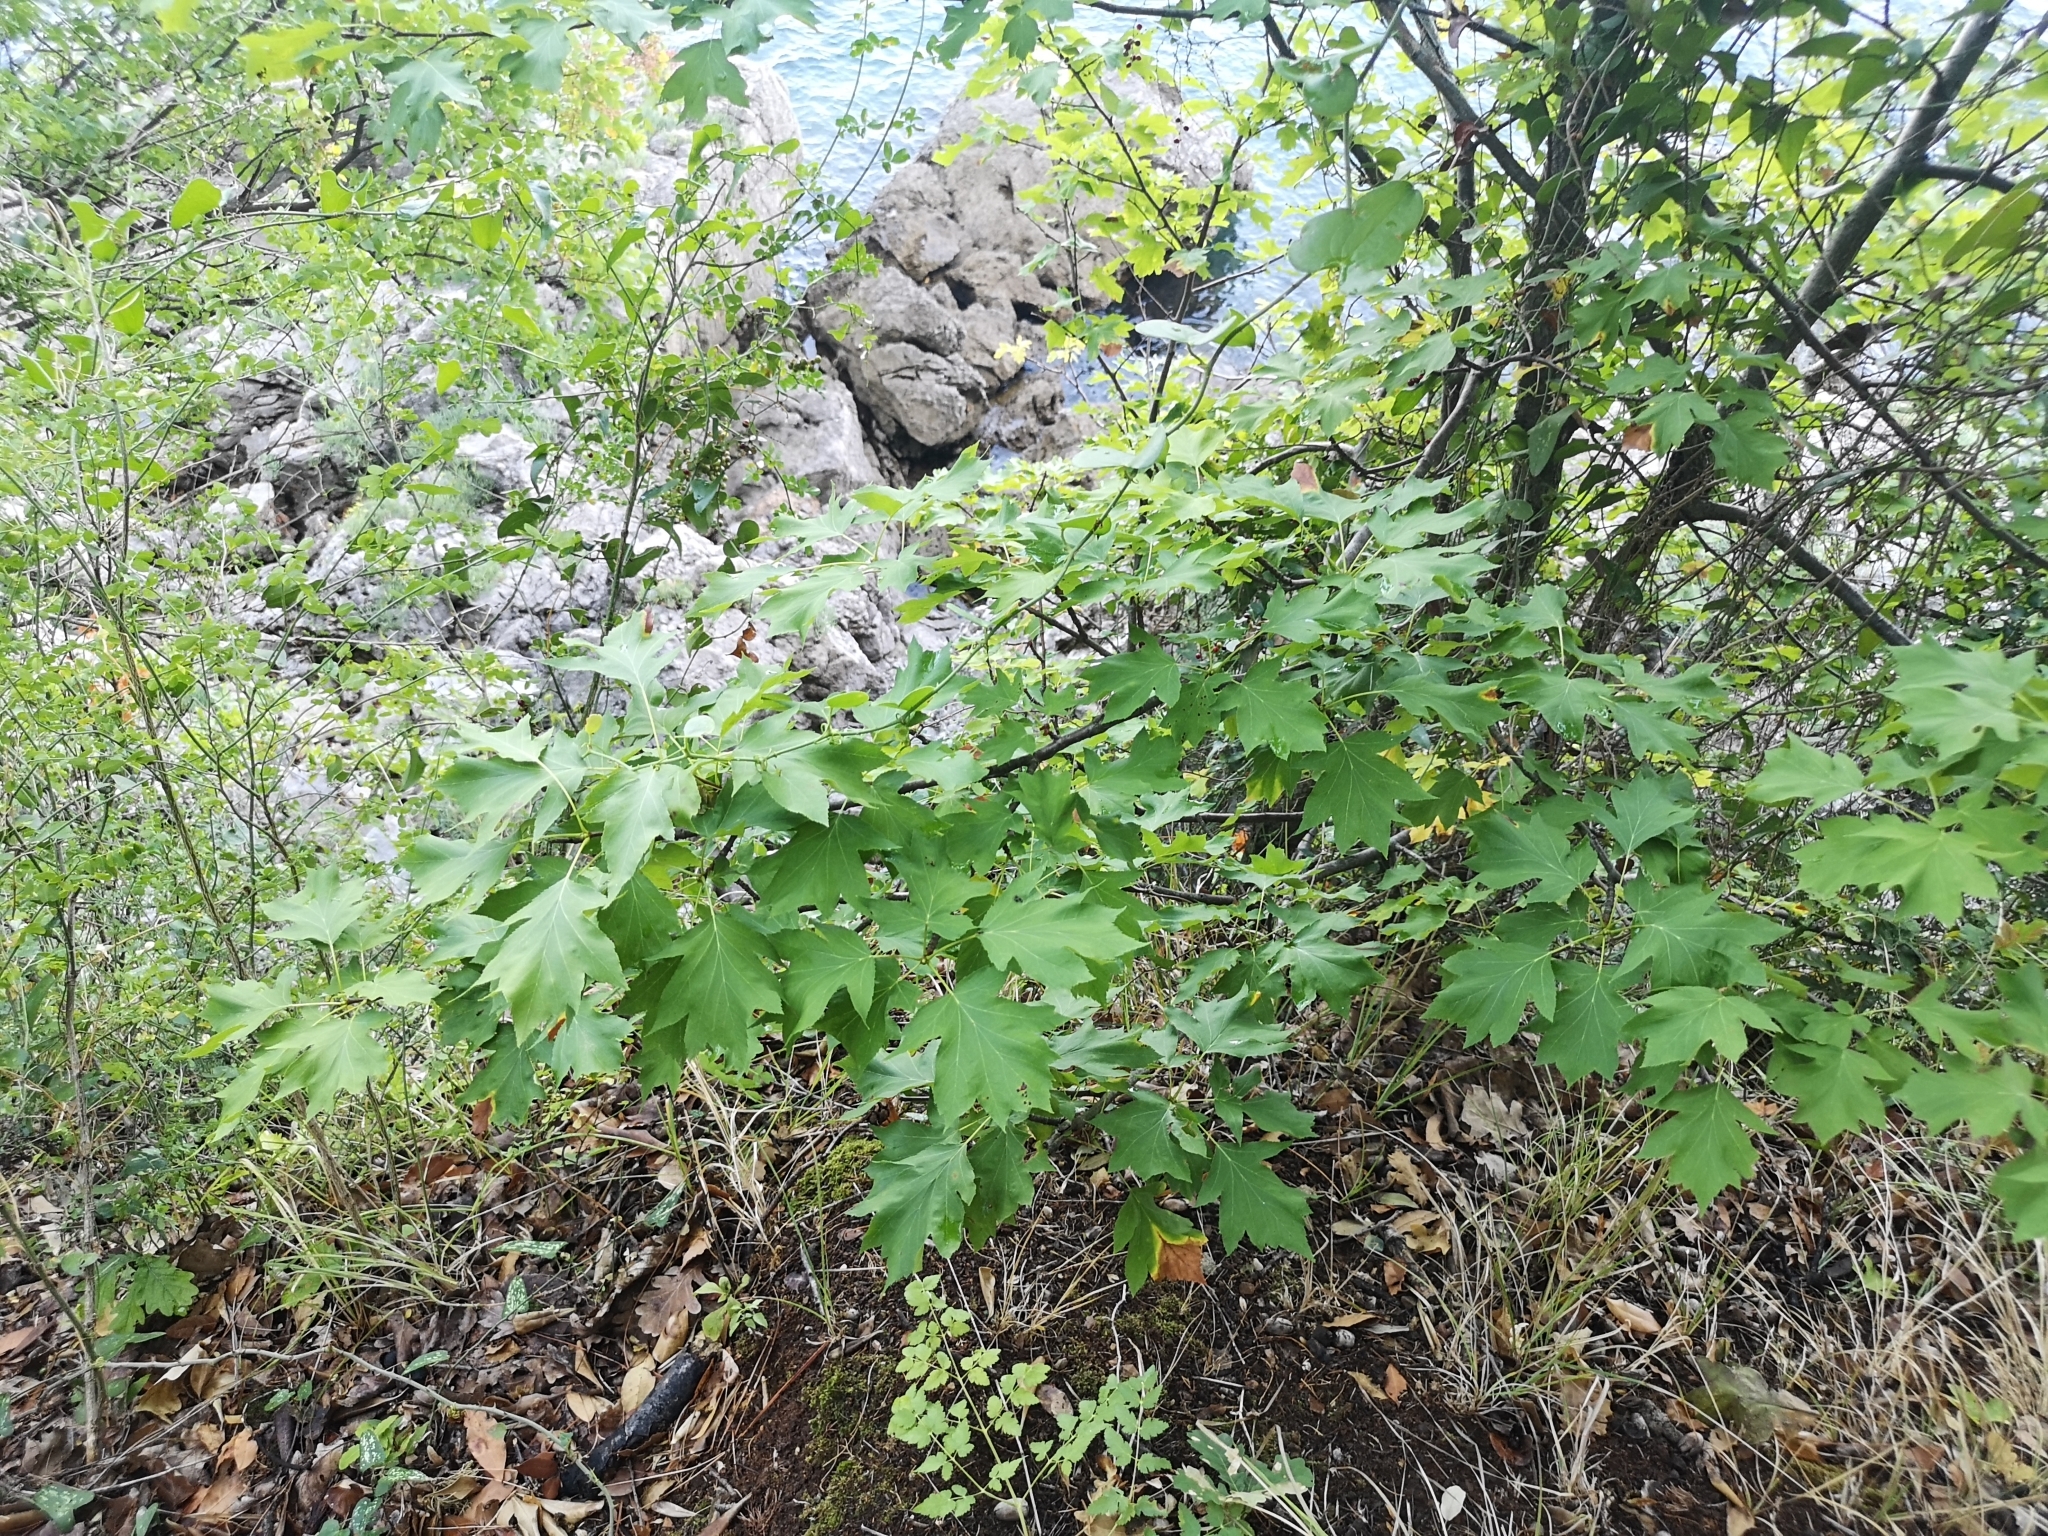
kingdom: Plantae
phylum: Tracheophyta
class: Magnoliopsida
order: Rosales
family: Rosaceae
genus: Torminalis
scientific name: Torminalis glaberrima
